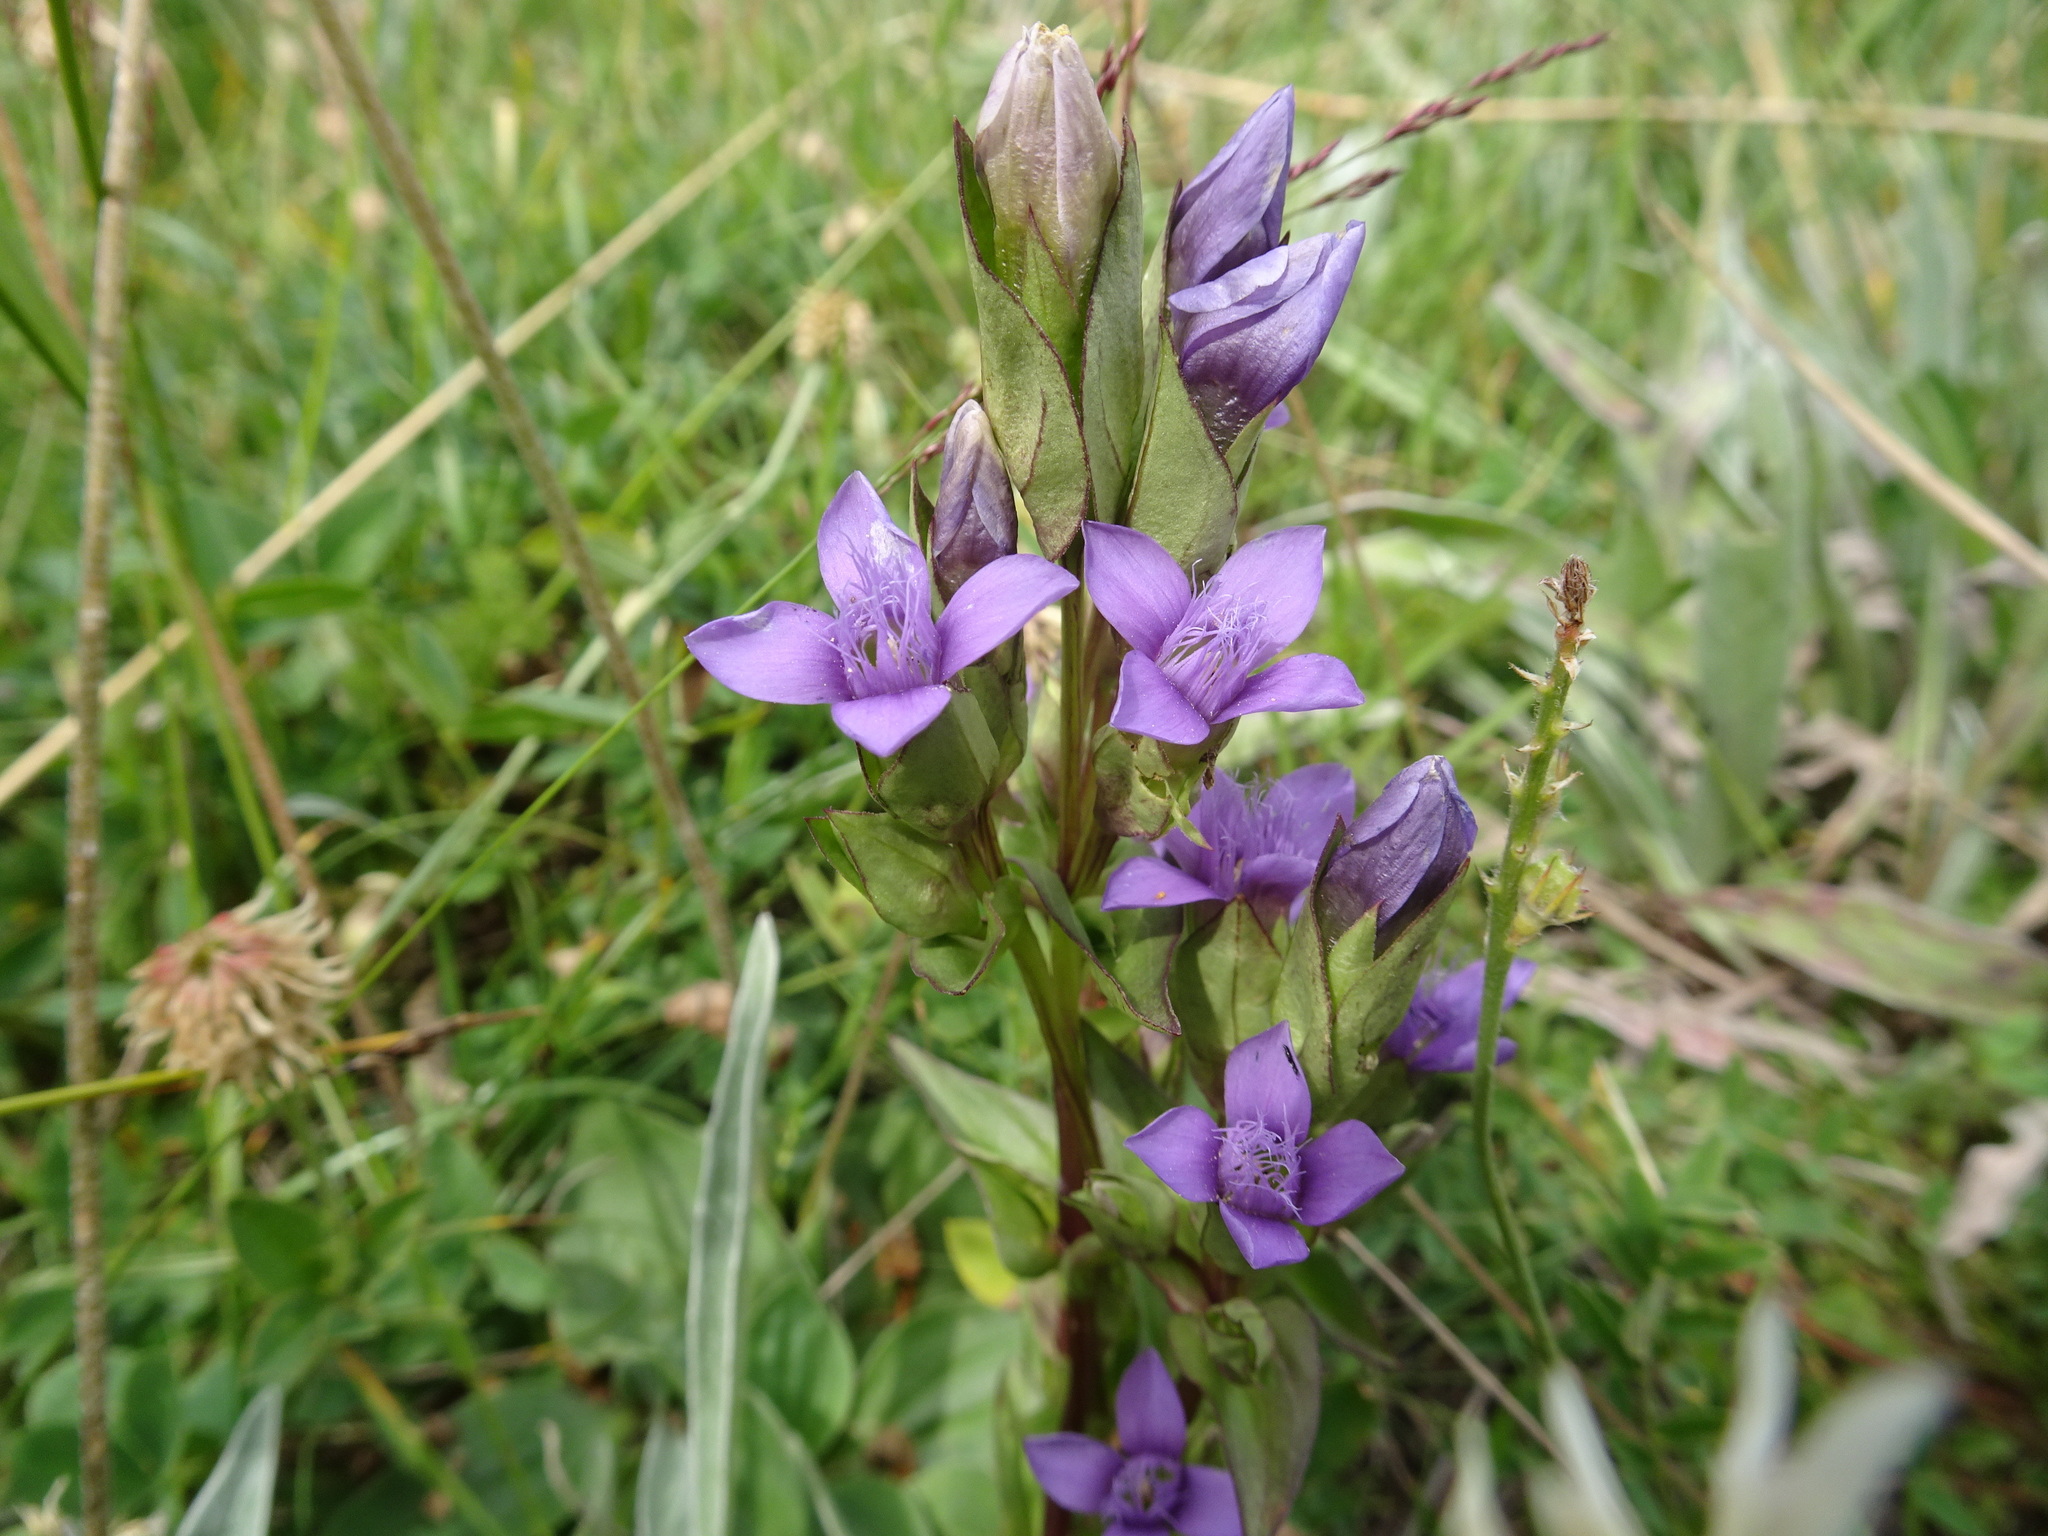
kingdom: Plantae
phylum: Tracheophyta
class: Magnoliopsida
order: Gentianales
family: Gentianaceae
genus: Gentianella
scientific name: Gentianella campestris
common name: Field gentian
